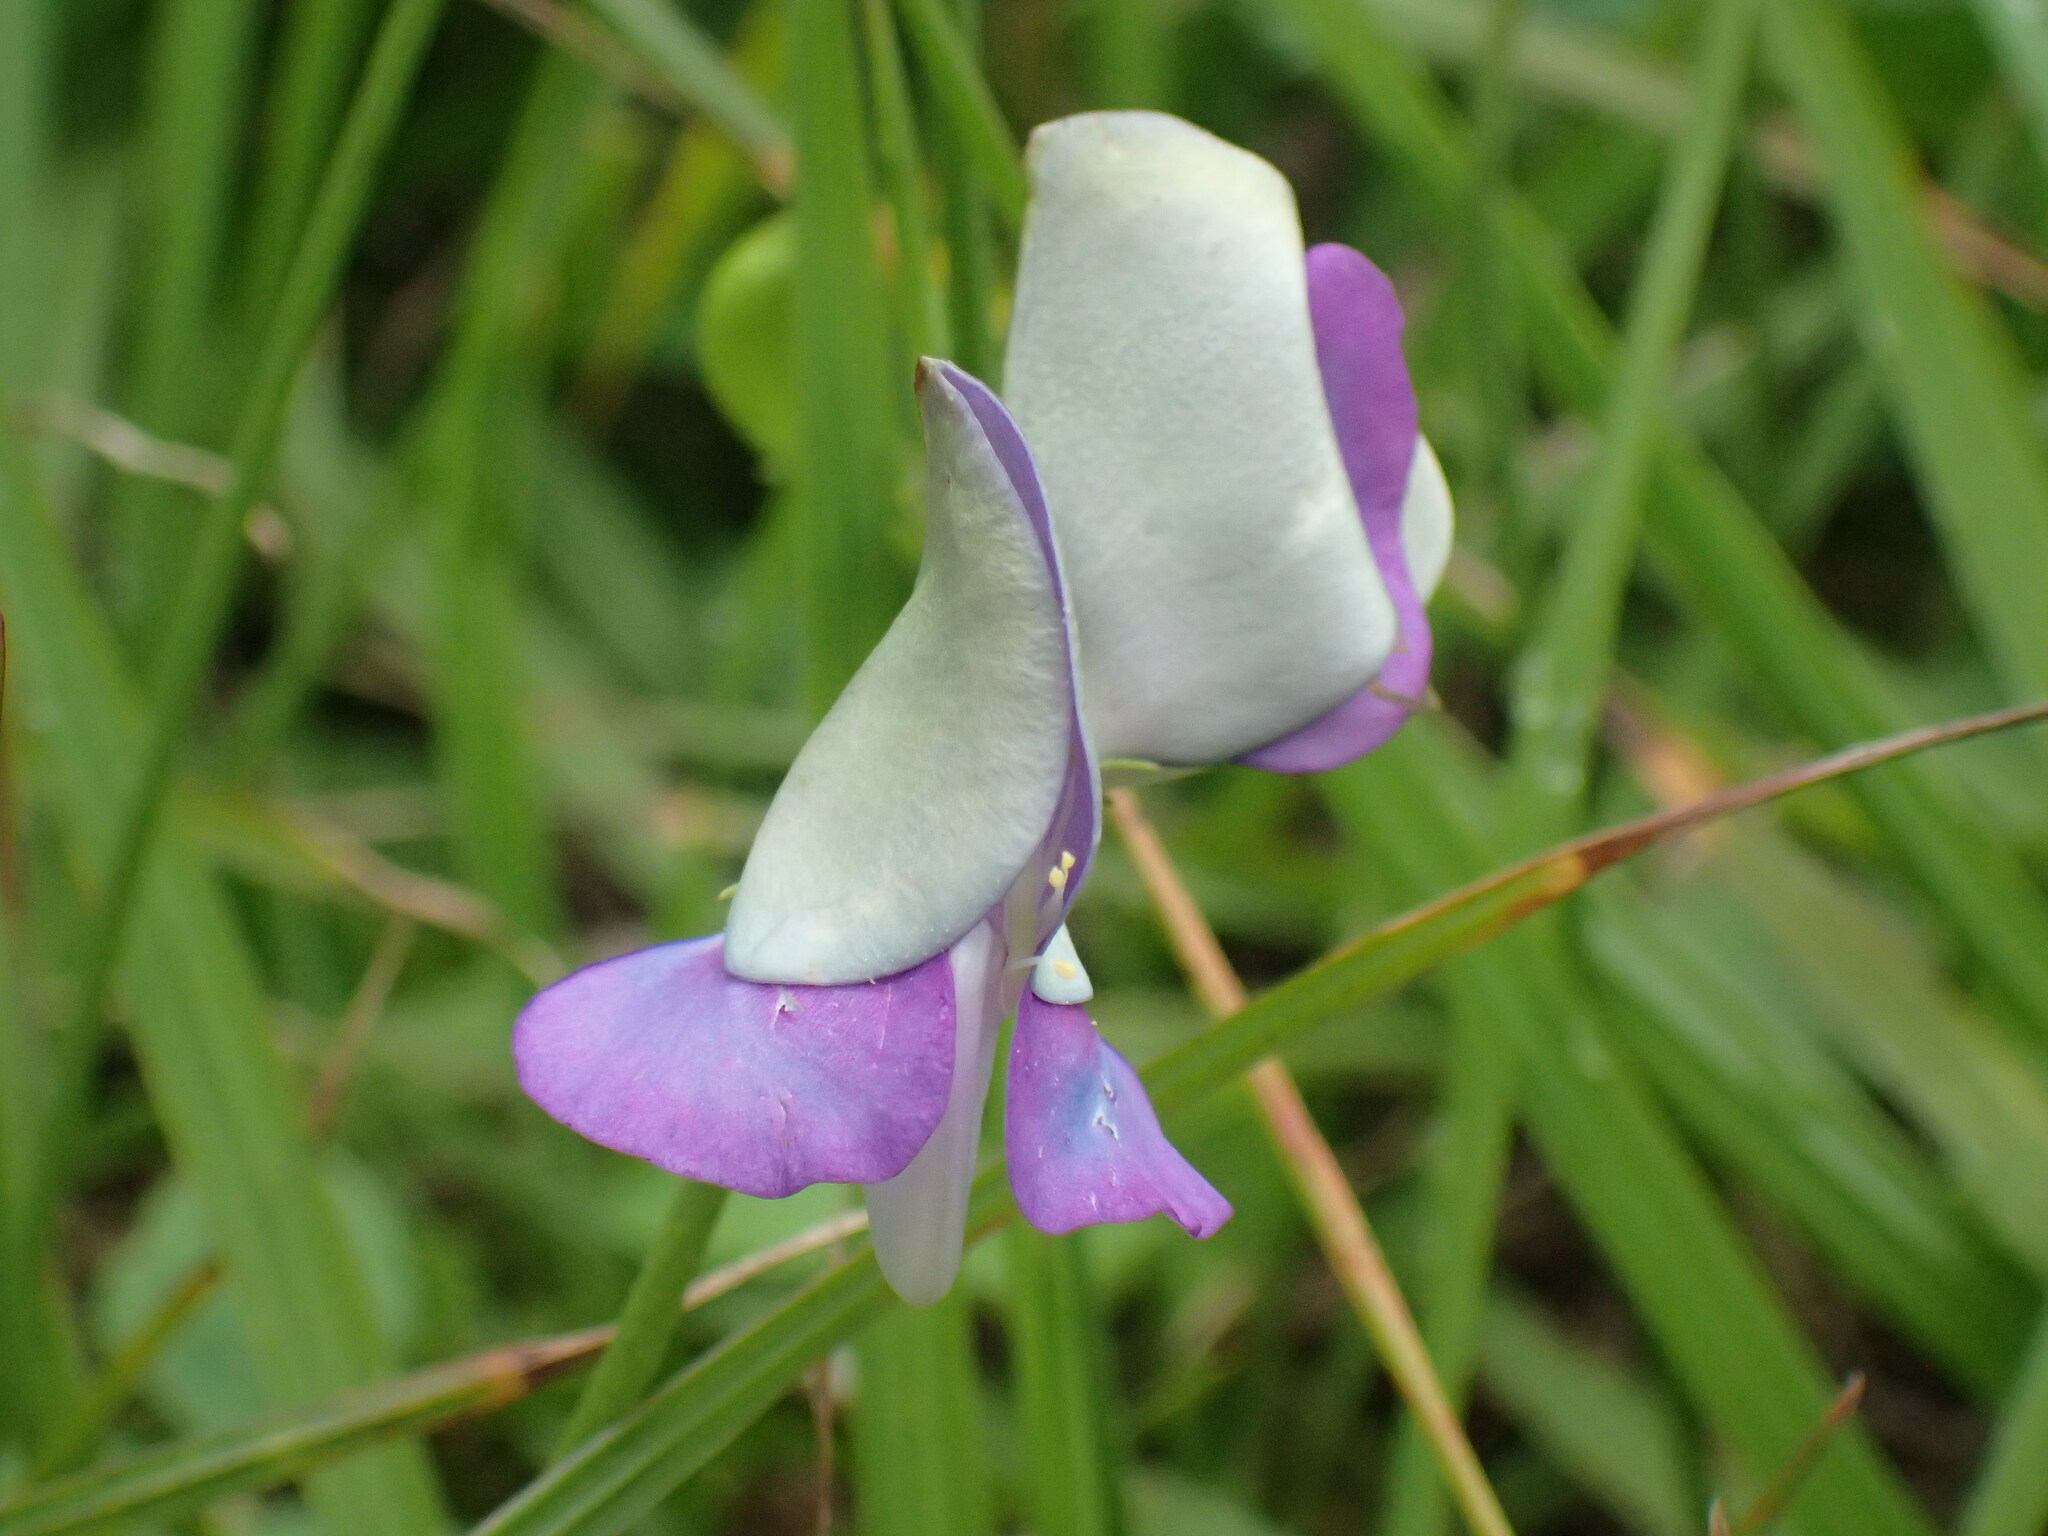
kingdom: Plantae
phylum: Tracheophyta
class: Magnoliopsida
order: Fabales
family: Fabaceae
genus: Vigna
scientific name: Vigna unguiculata
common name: Cowpea
